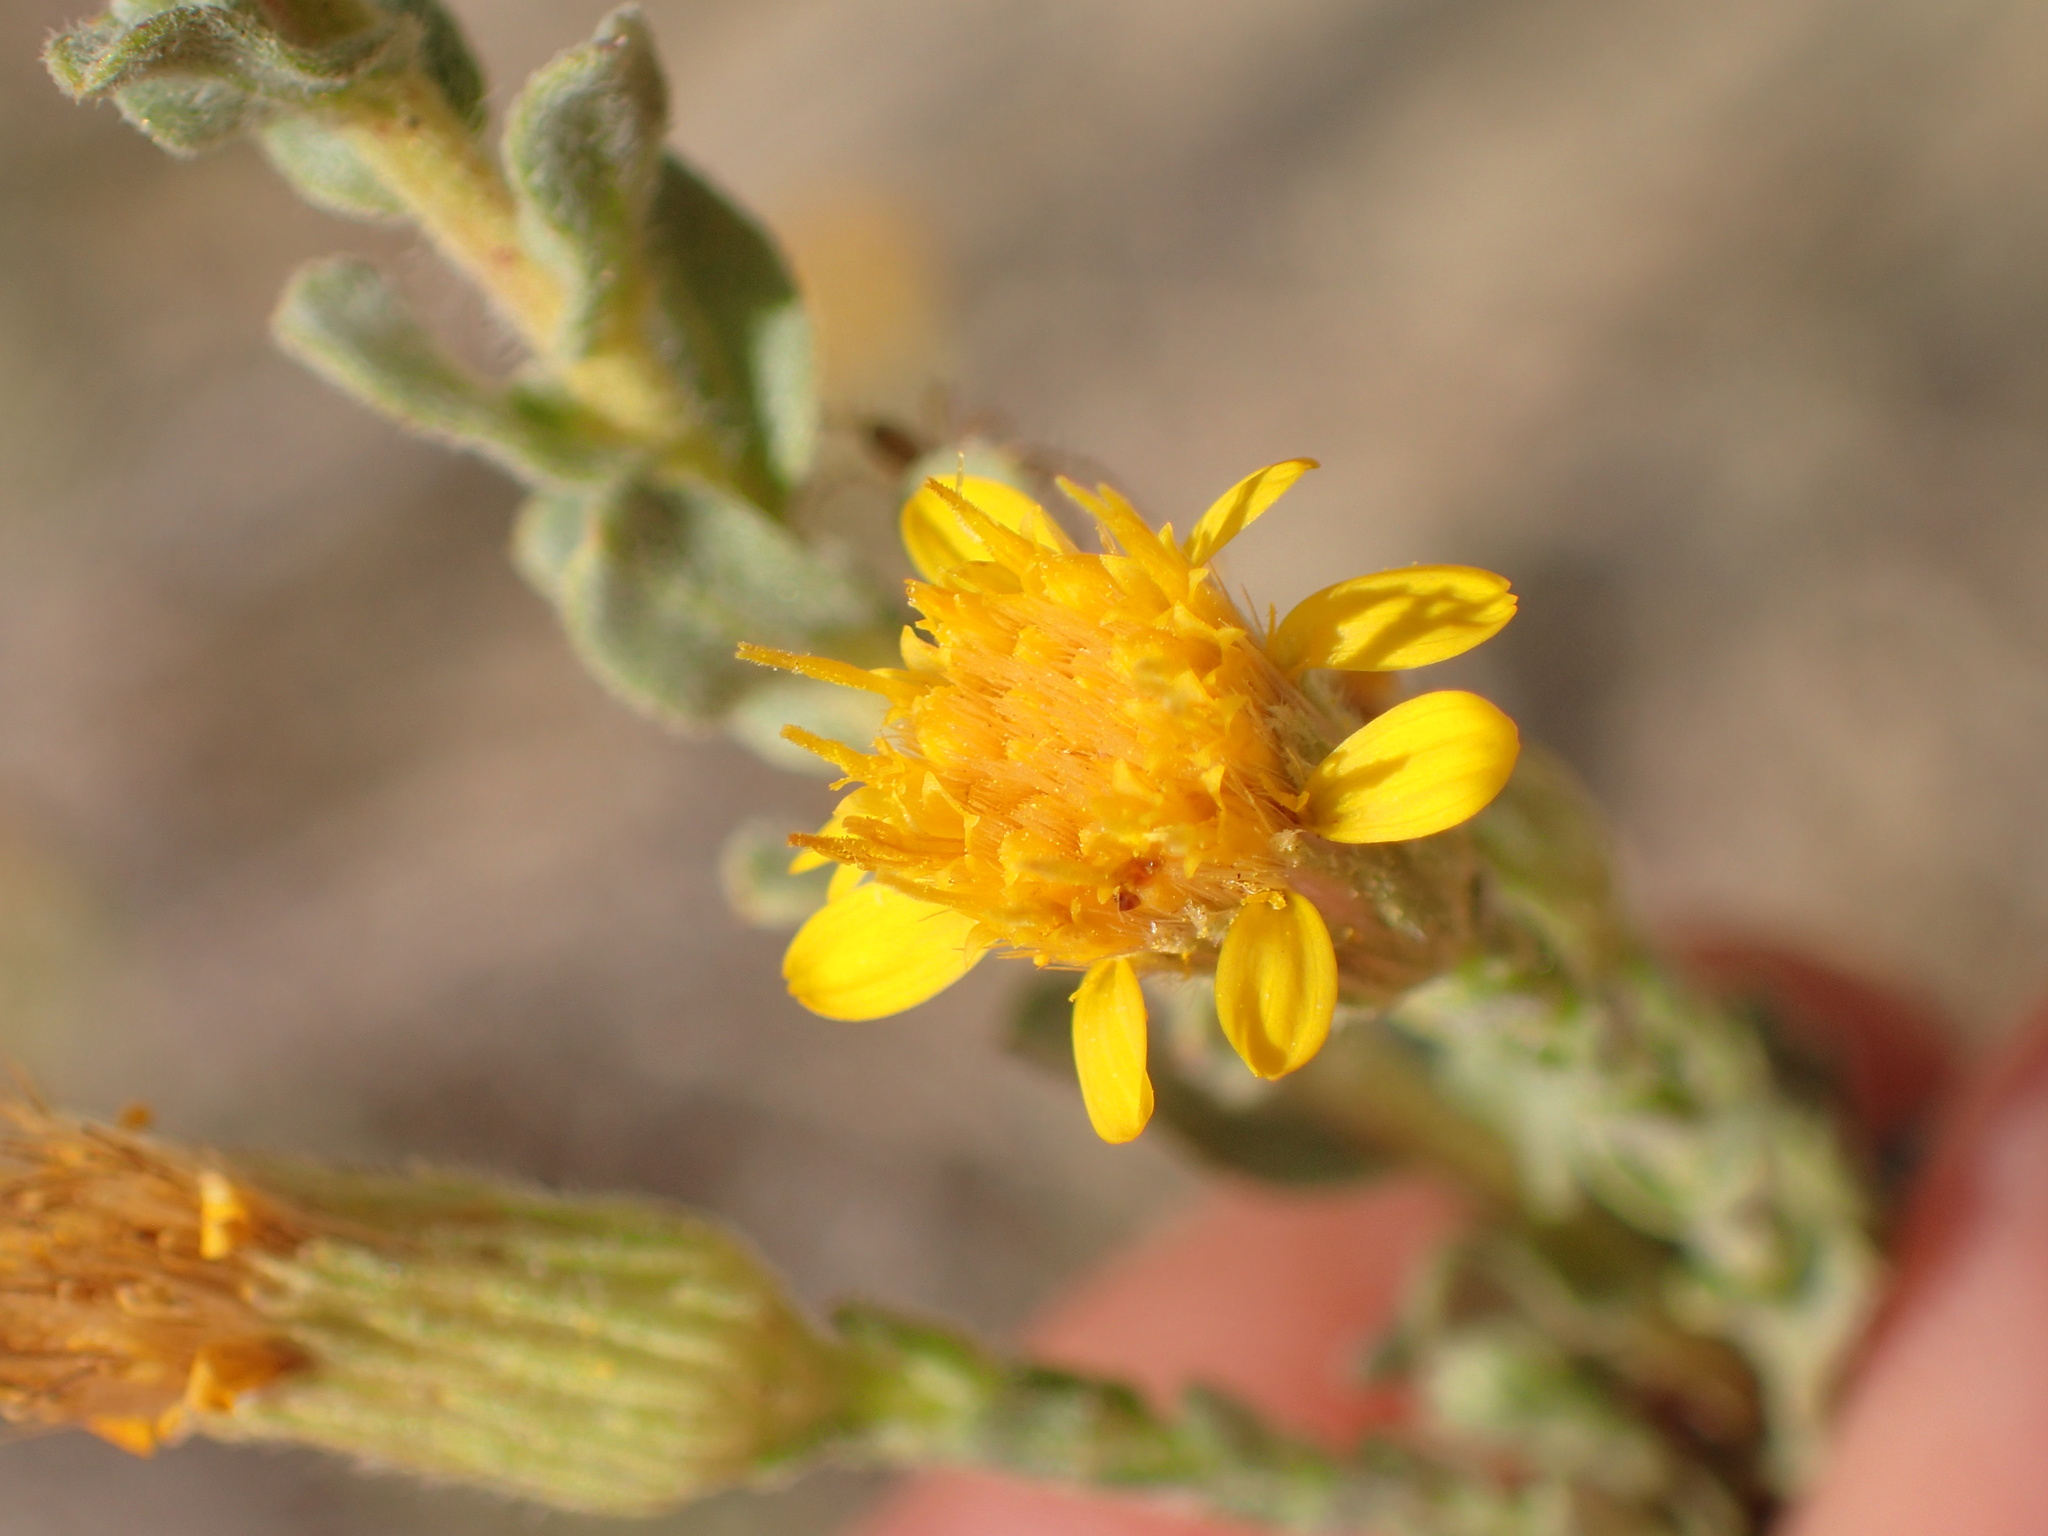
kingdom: Plantae
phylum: Tracheophyta
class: Magnoliopsida
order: Asterales
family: Asteraceae
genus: Heterotheca
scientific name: Heterotheca sessiliflora
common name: Sessile-flower golden-aster
